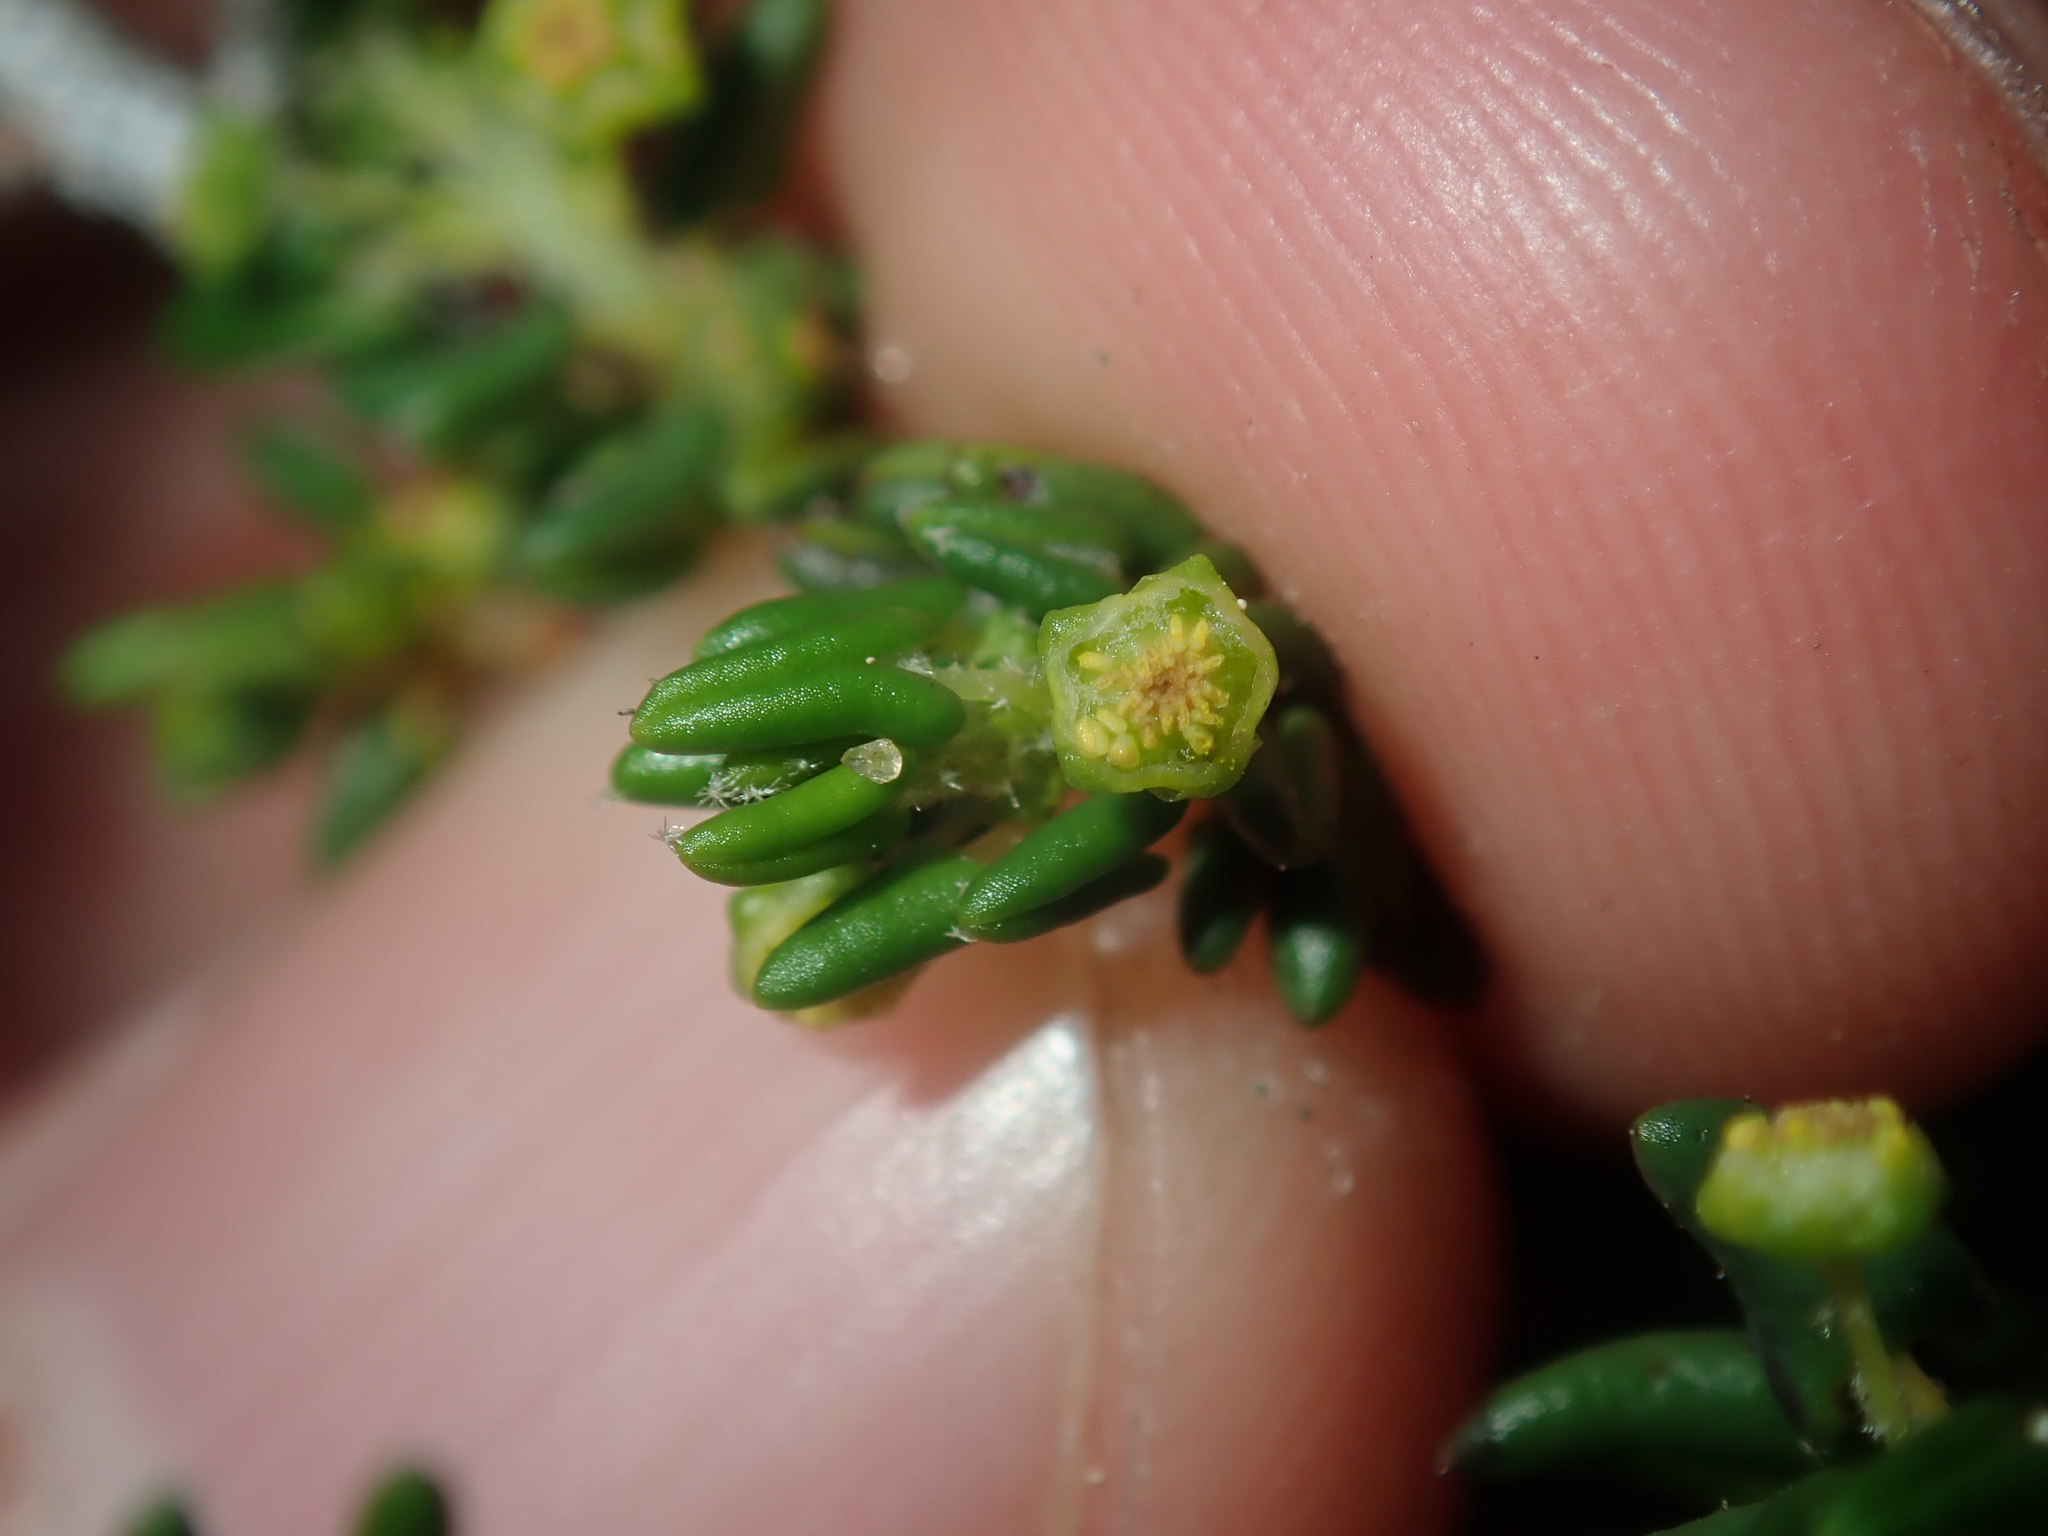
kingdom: Plantae
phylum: Tracheophyta
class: Magnoliopsida
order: Malpighiales
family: Euphorbiaceae
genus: Beyeria
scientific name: Beyeria cinerea
